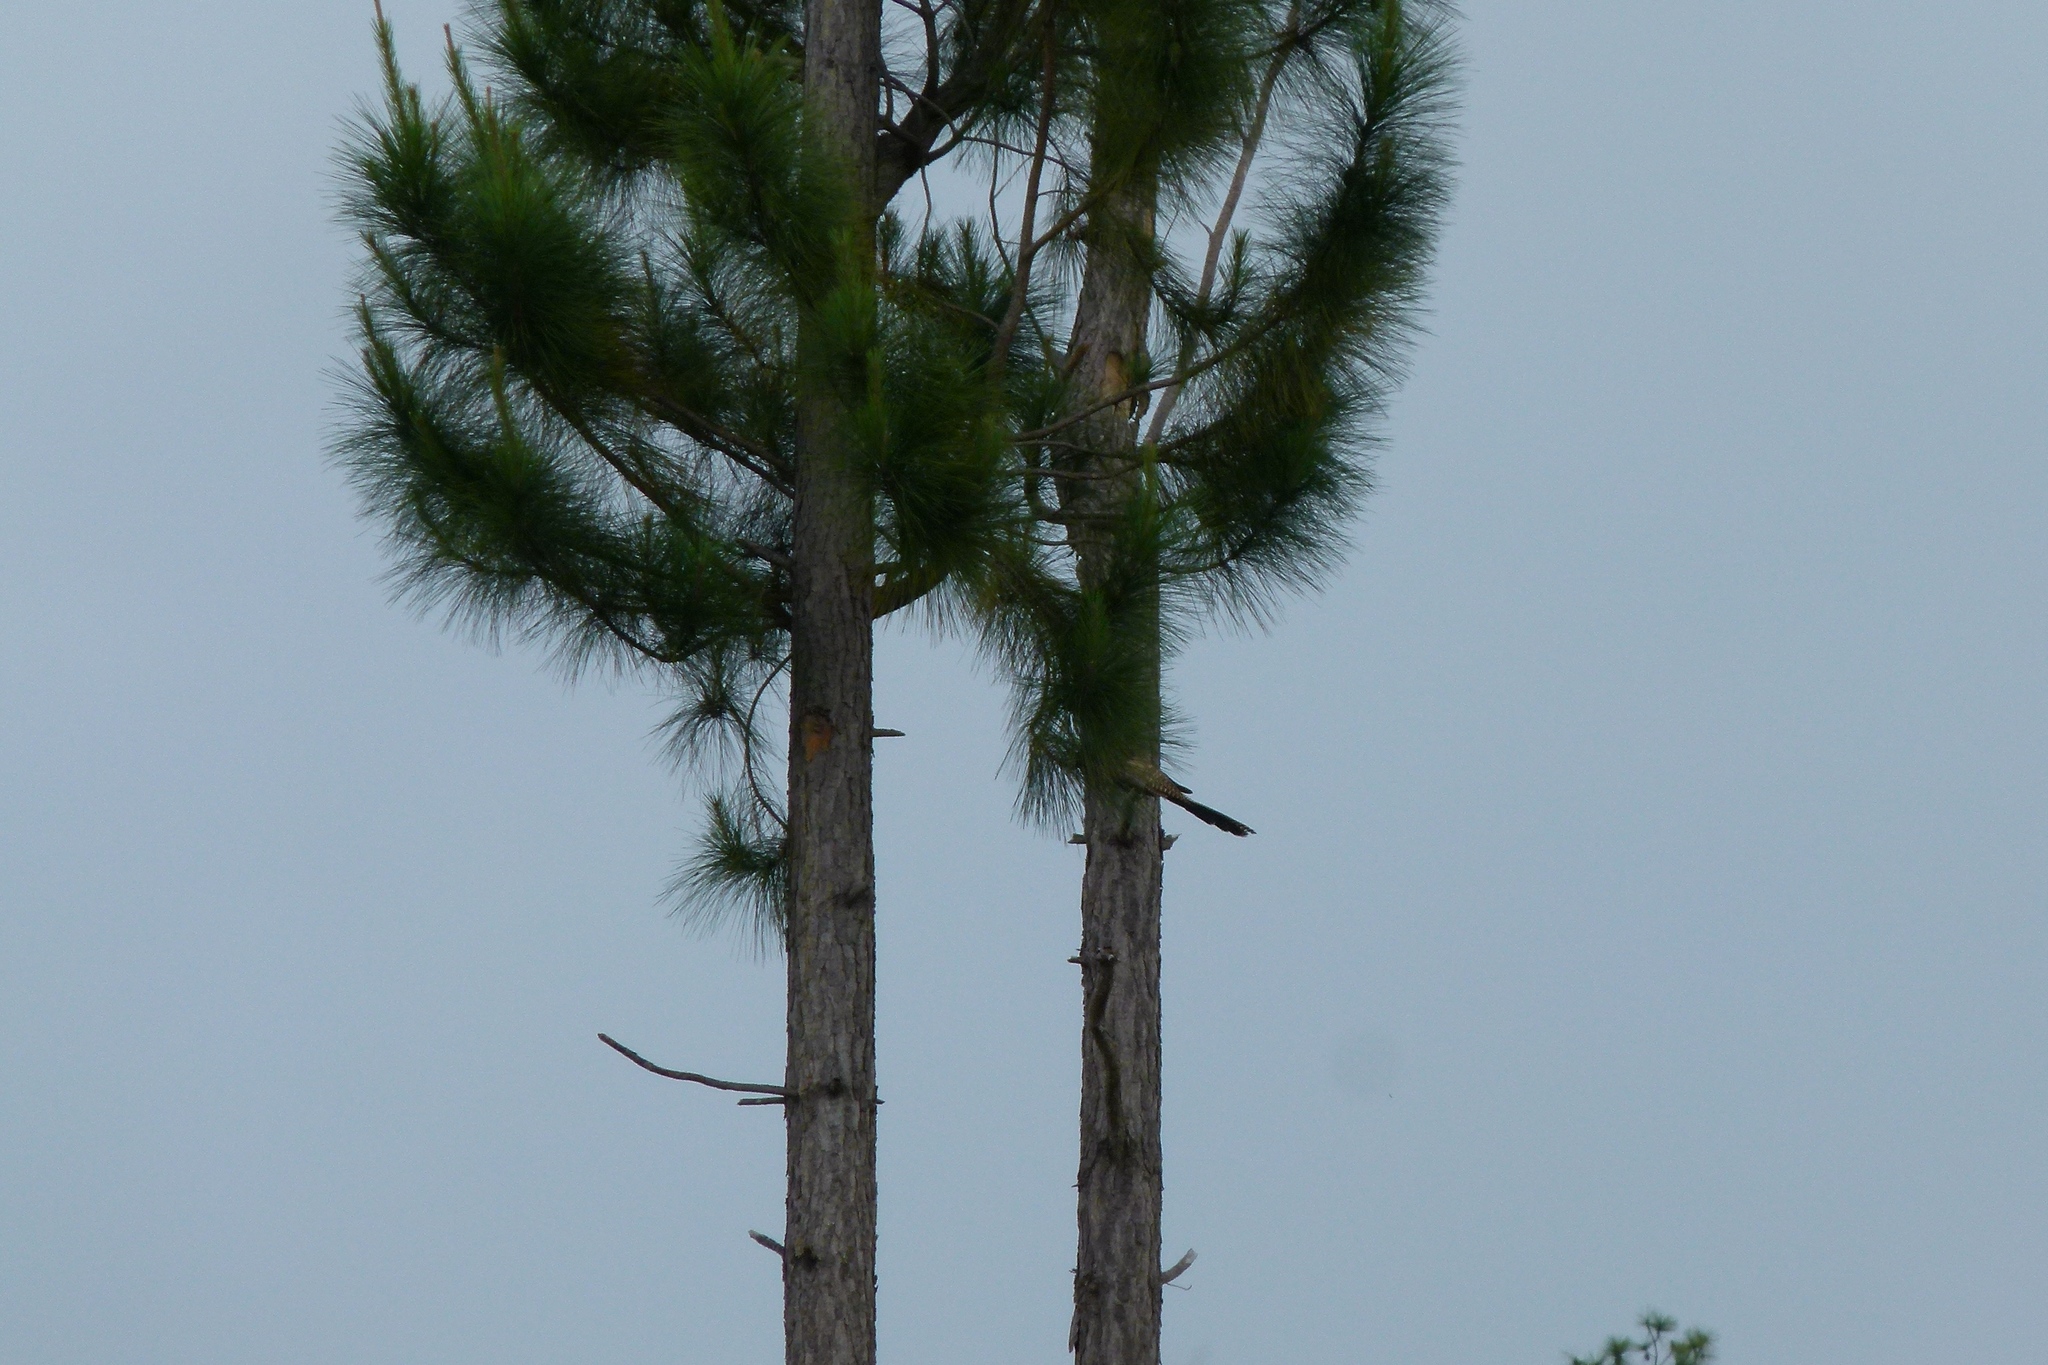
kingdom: Animalia
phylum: Chordata
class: Aves
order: Cuculiformes
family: Cuculidae
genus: Centropus
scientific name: Centropus phasianinus
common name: Pheasant coucal
